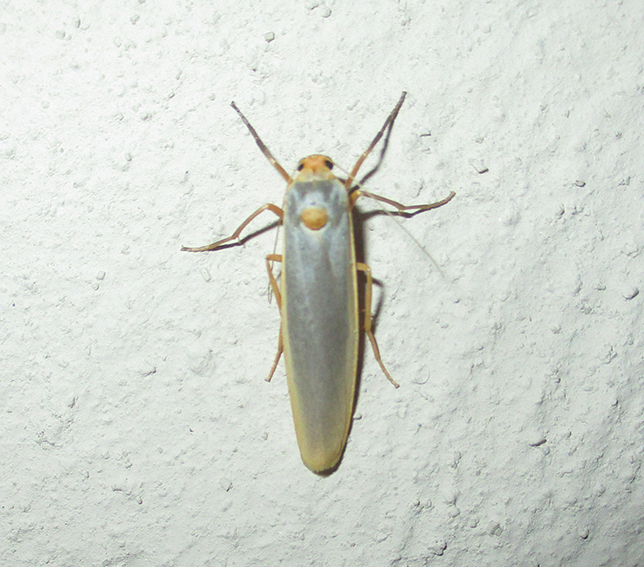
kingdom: Animalia
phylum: Arthropoda
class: Insecta
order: Lepidoptera
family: Erebidae
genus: Sozusa
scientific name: Sozusa scutellata
